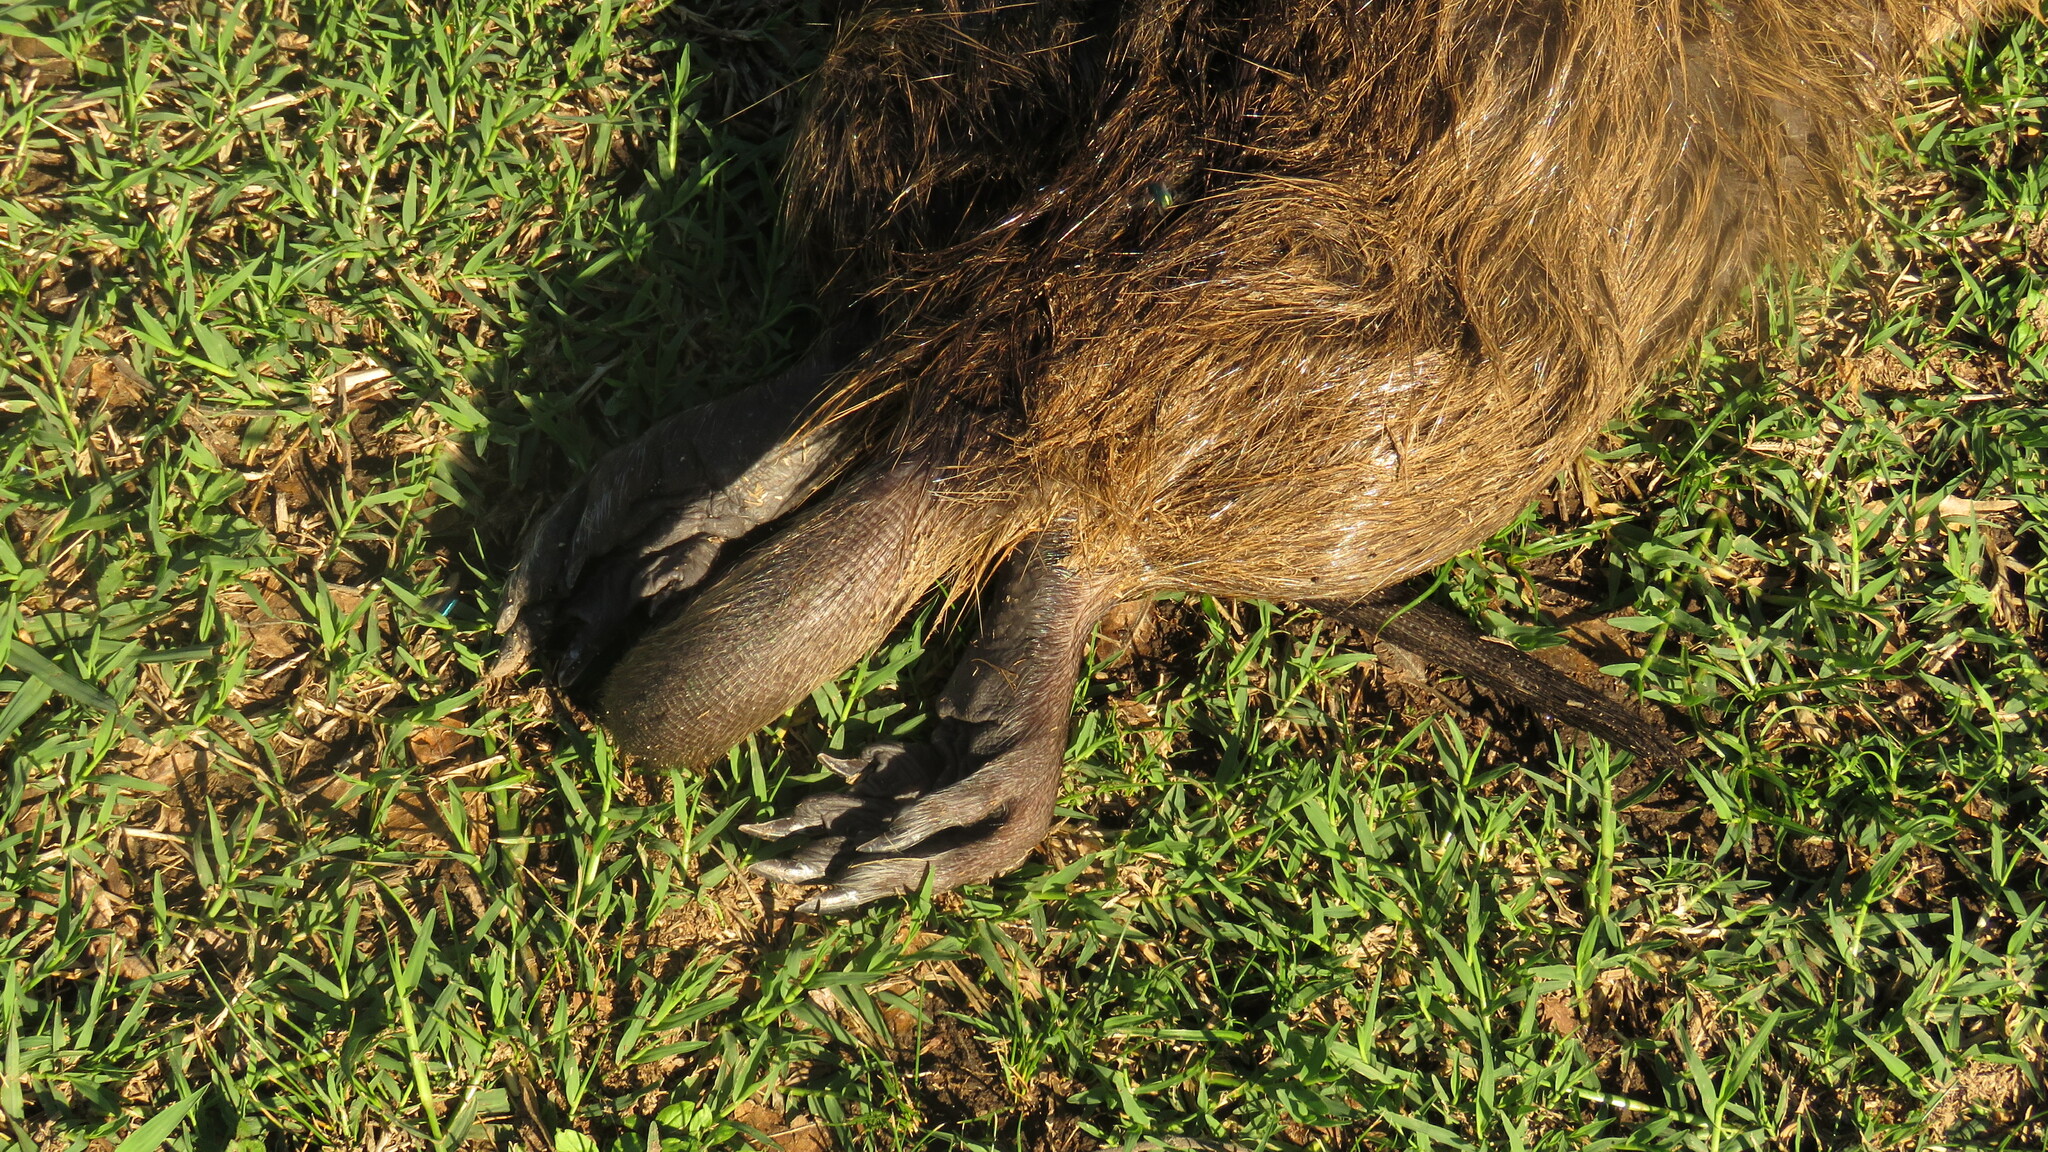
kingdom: Animalia
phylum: Chordata
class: Mammalia
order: Rodentia
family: Myocastoridae
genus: Myocastor
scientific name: Myocastor coypus
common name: Coypu
